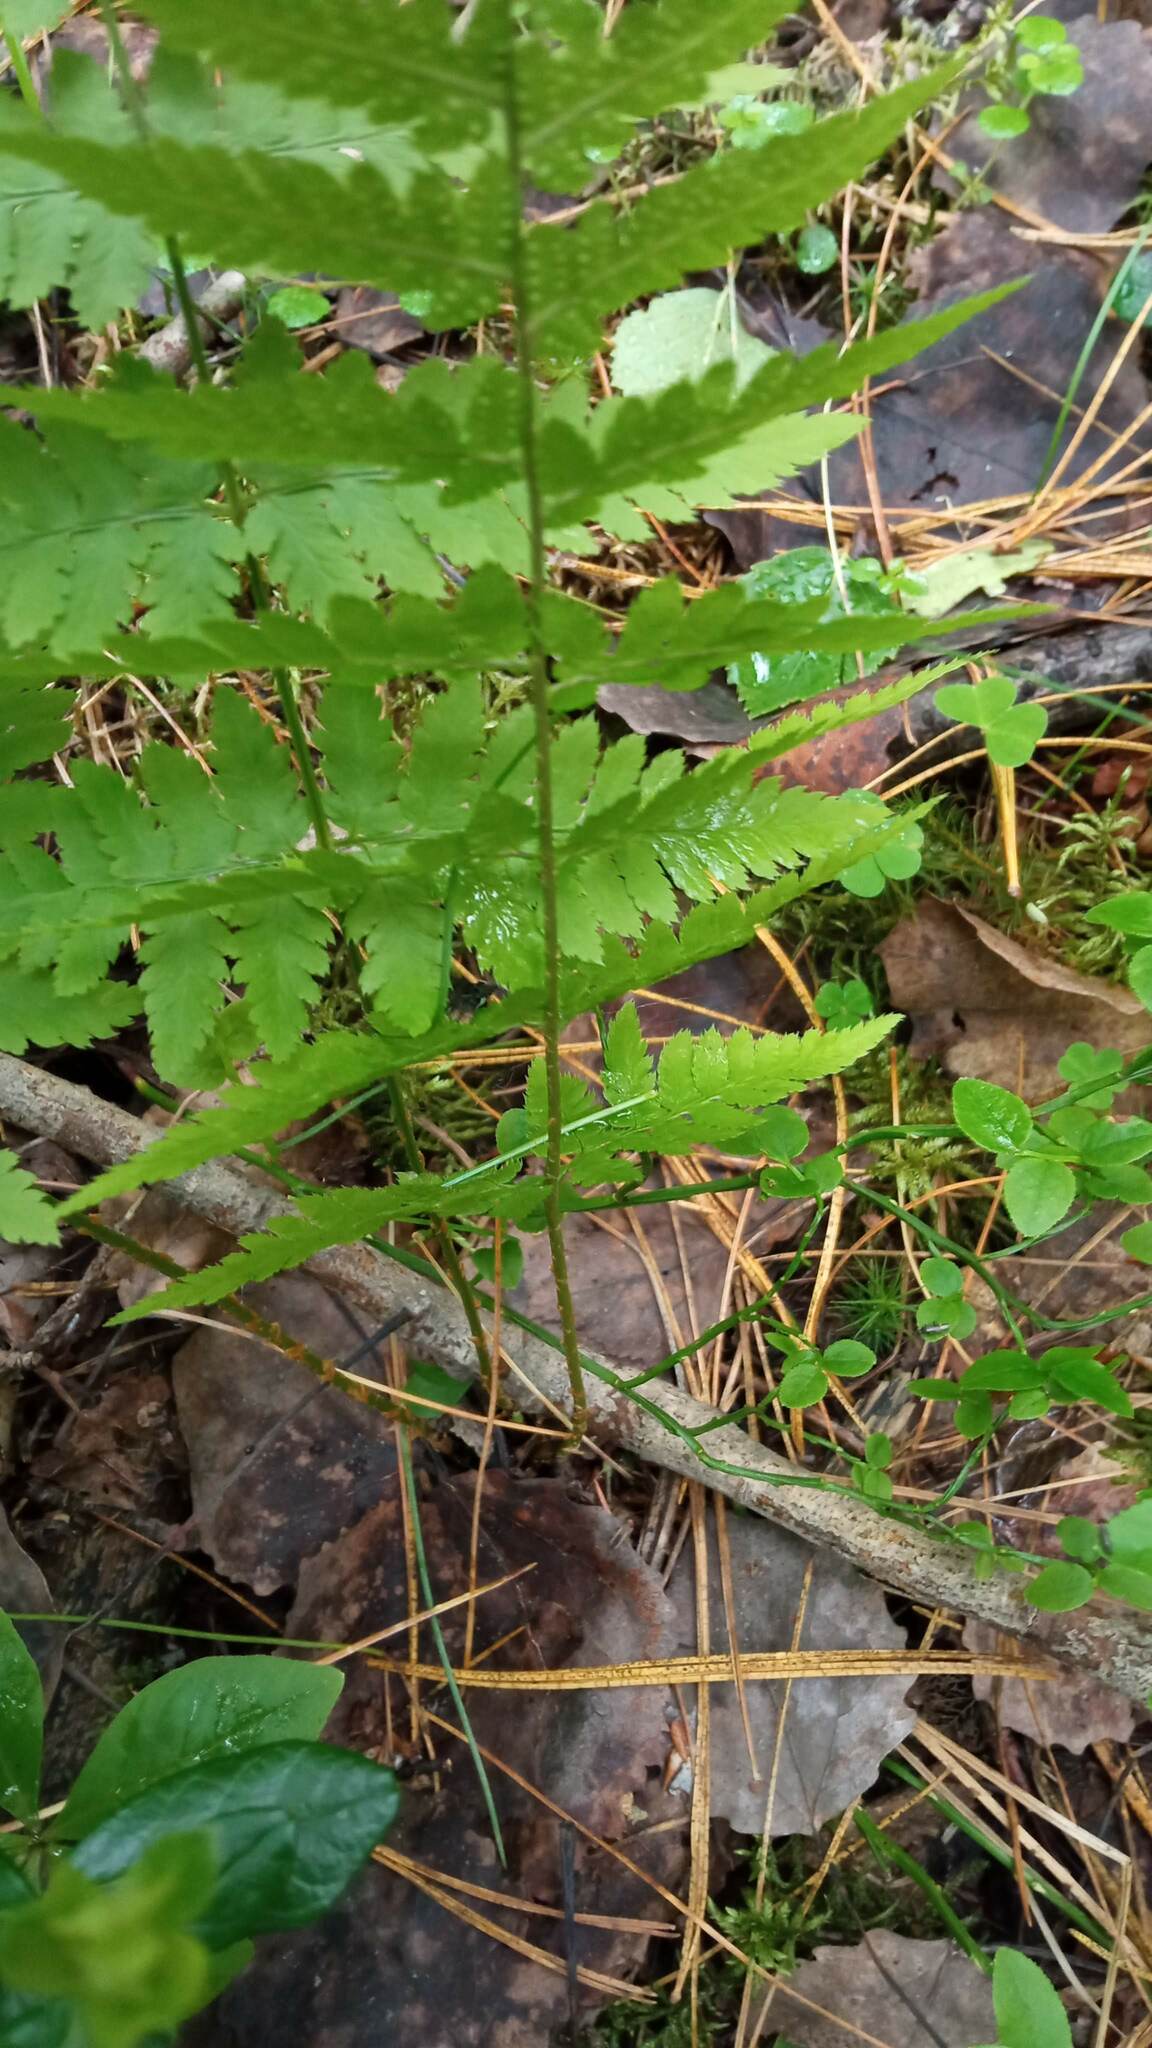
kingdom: Plantae
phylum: Tracheophyta
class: Polypodiopsida
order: Polypodiales
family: Dryopteridaceae
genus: Dryopteris
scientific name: Dryopteris carthusiana
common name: Narrow buckler-fern
